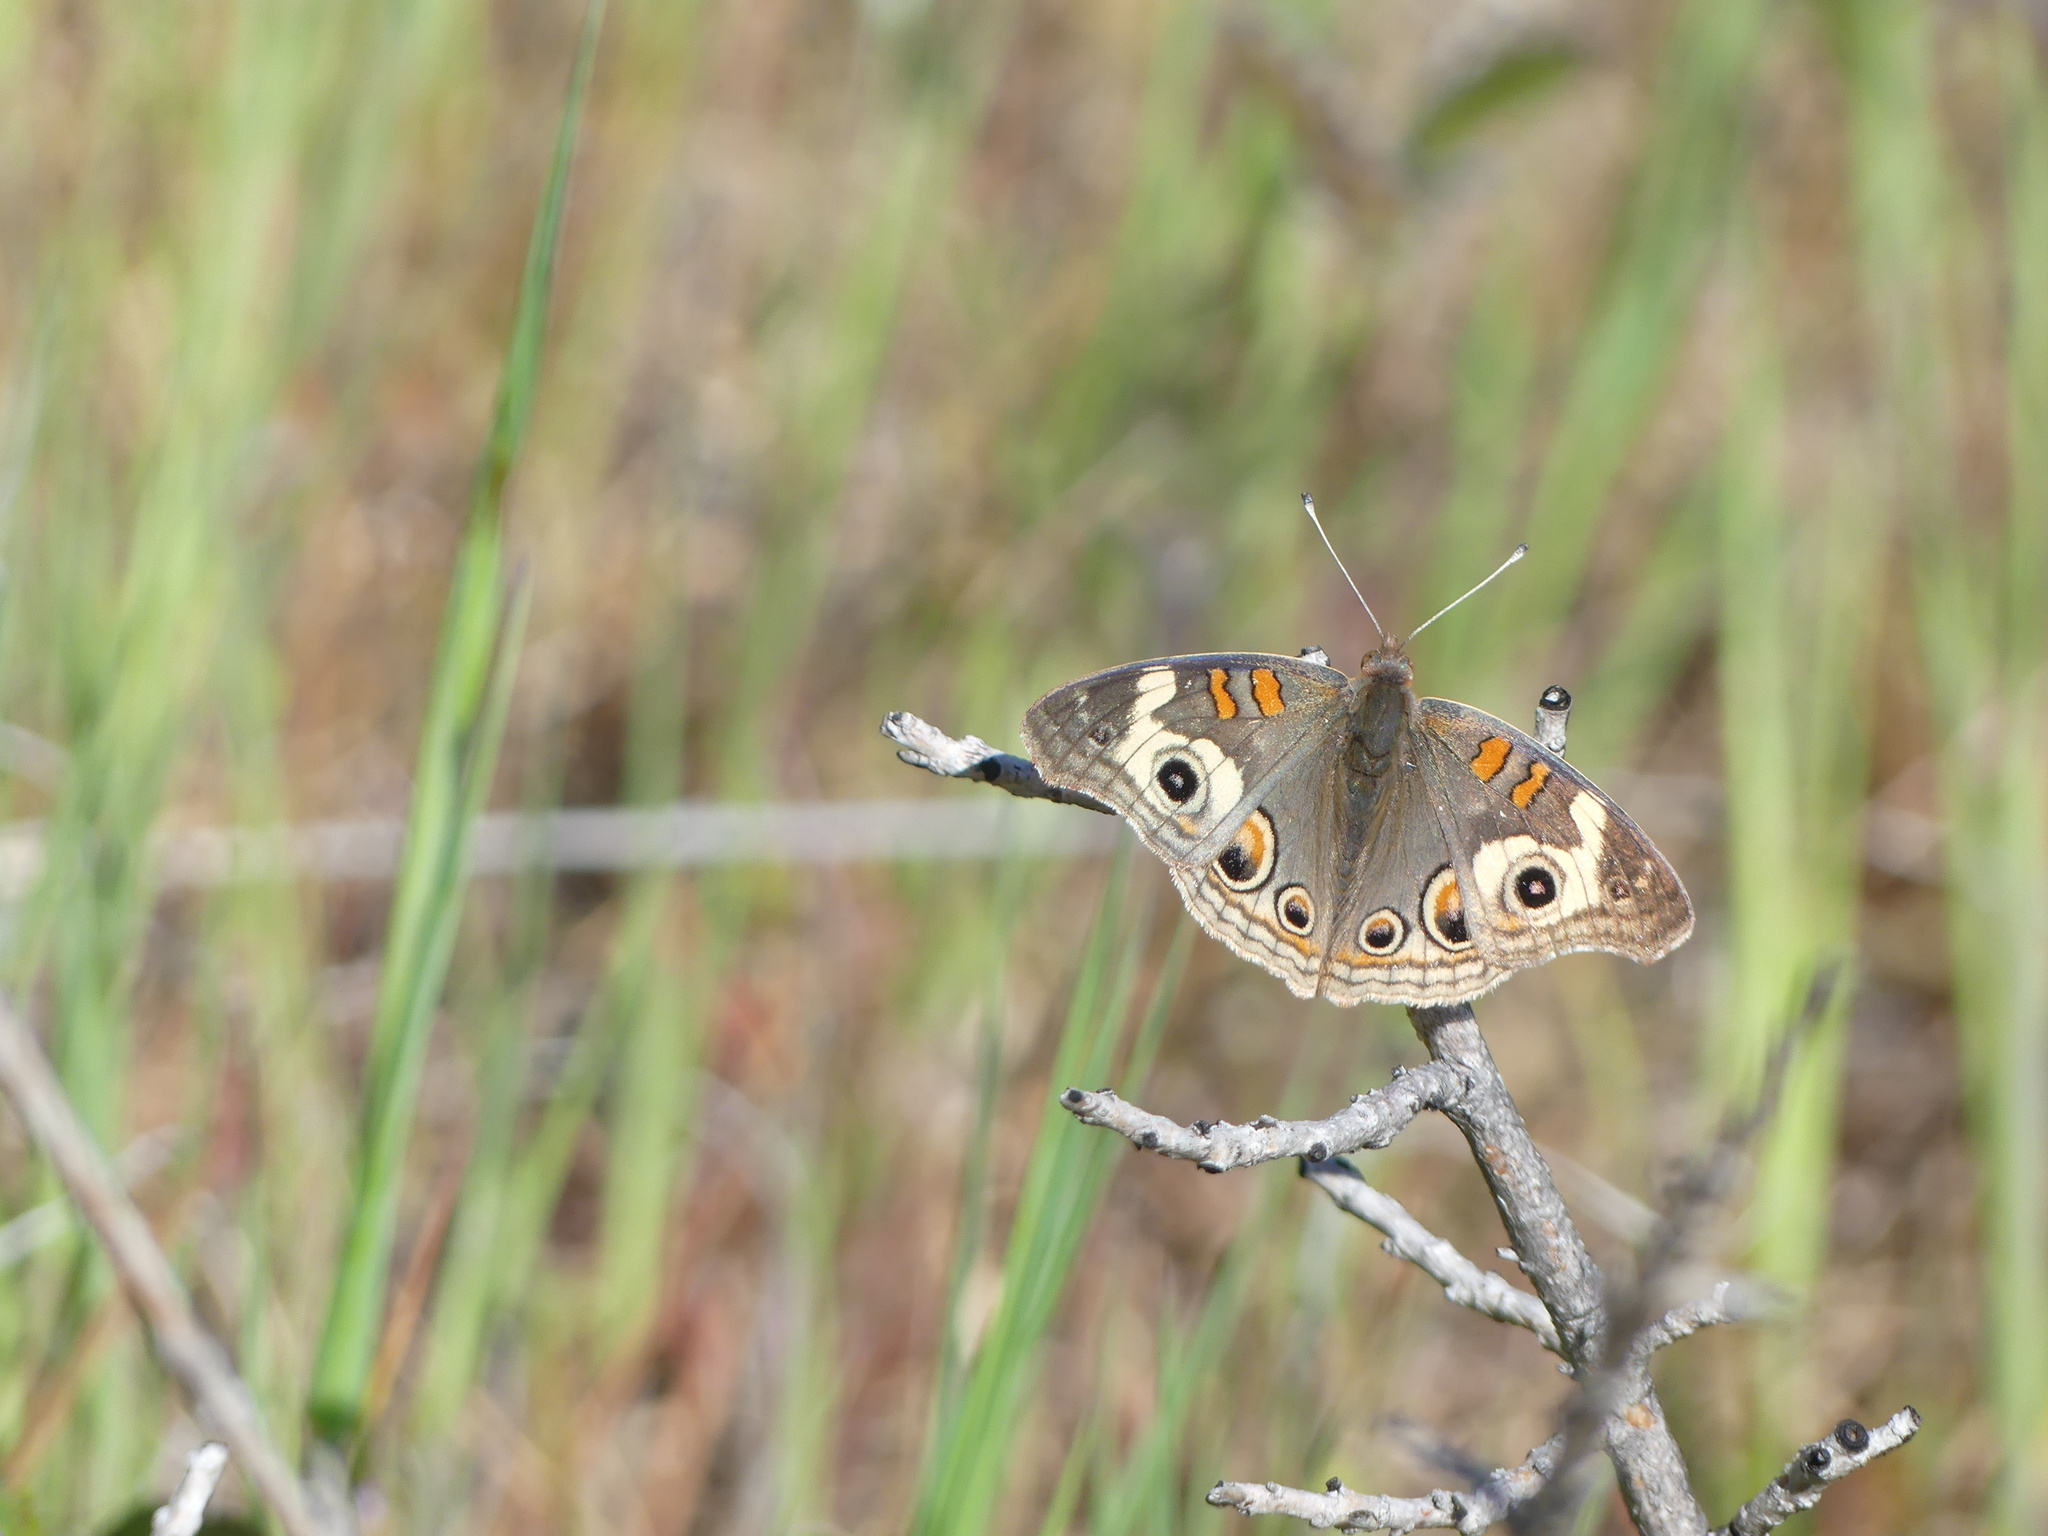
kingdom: Animalia
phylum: Arthropoda
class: Insecta
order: Lepidoptera
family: Nymphalidae
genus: Junonia
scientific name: Junonia grisea
